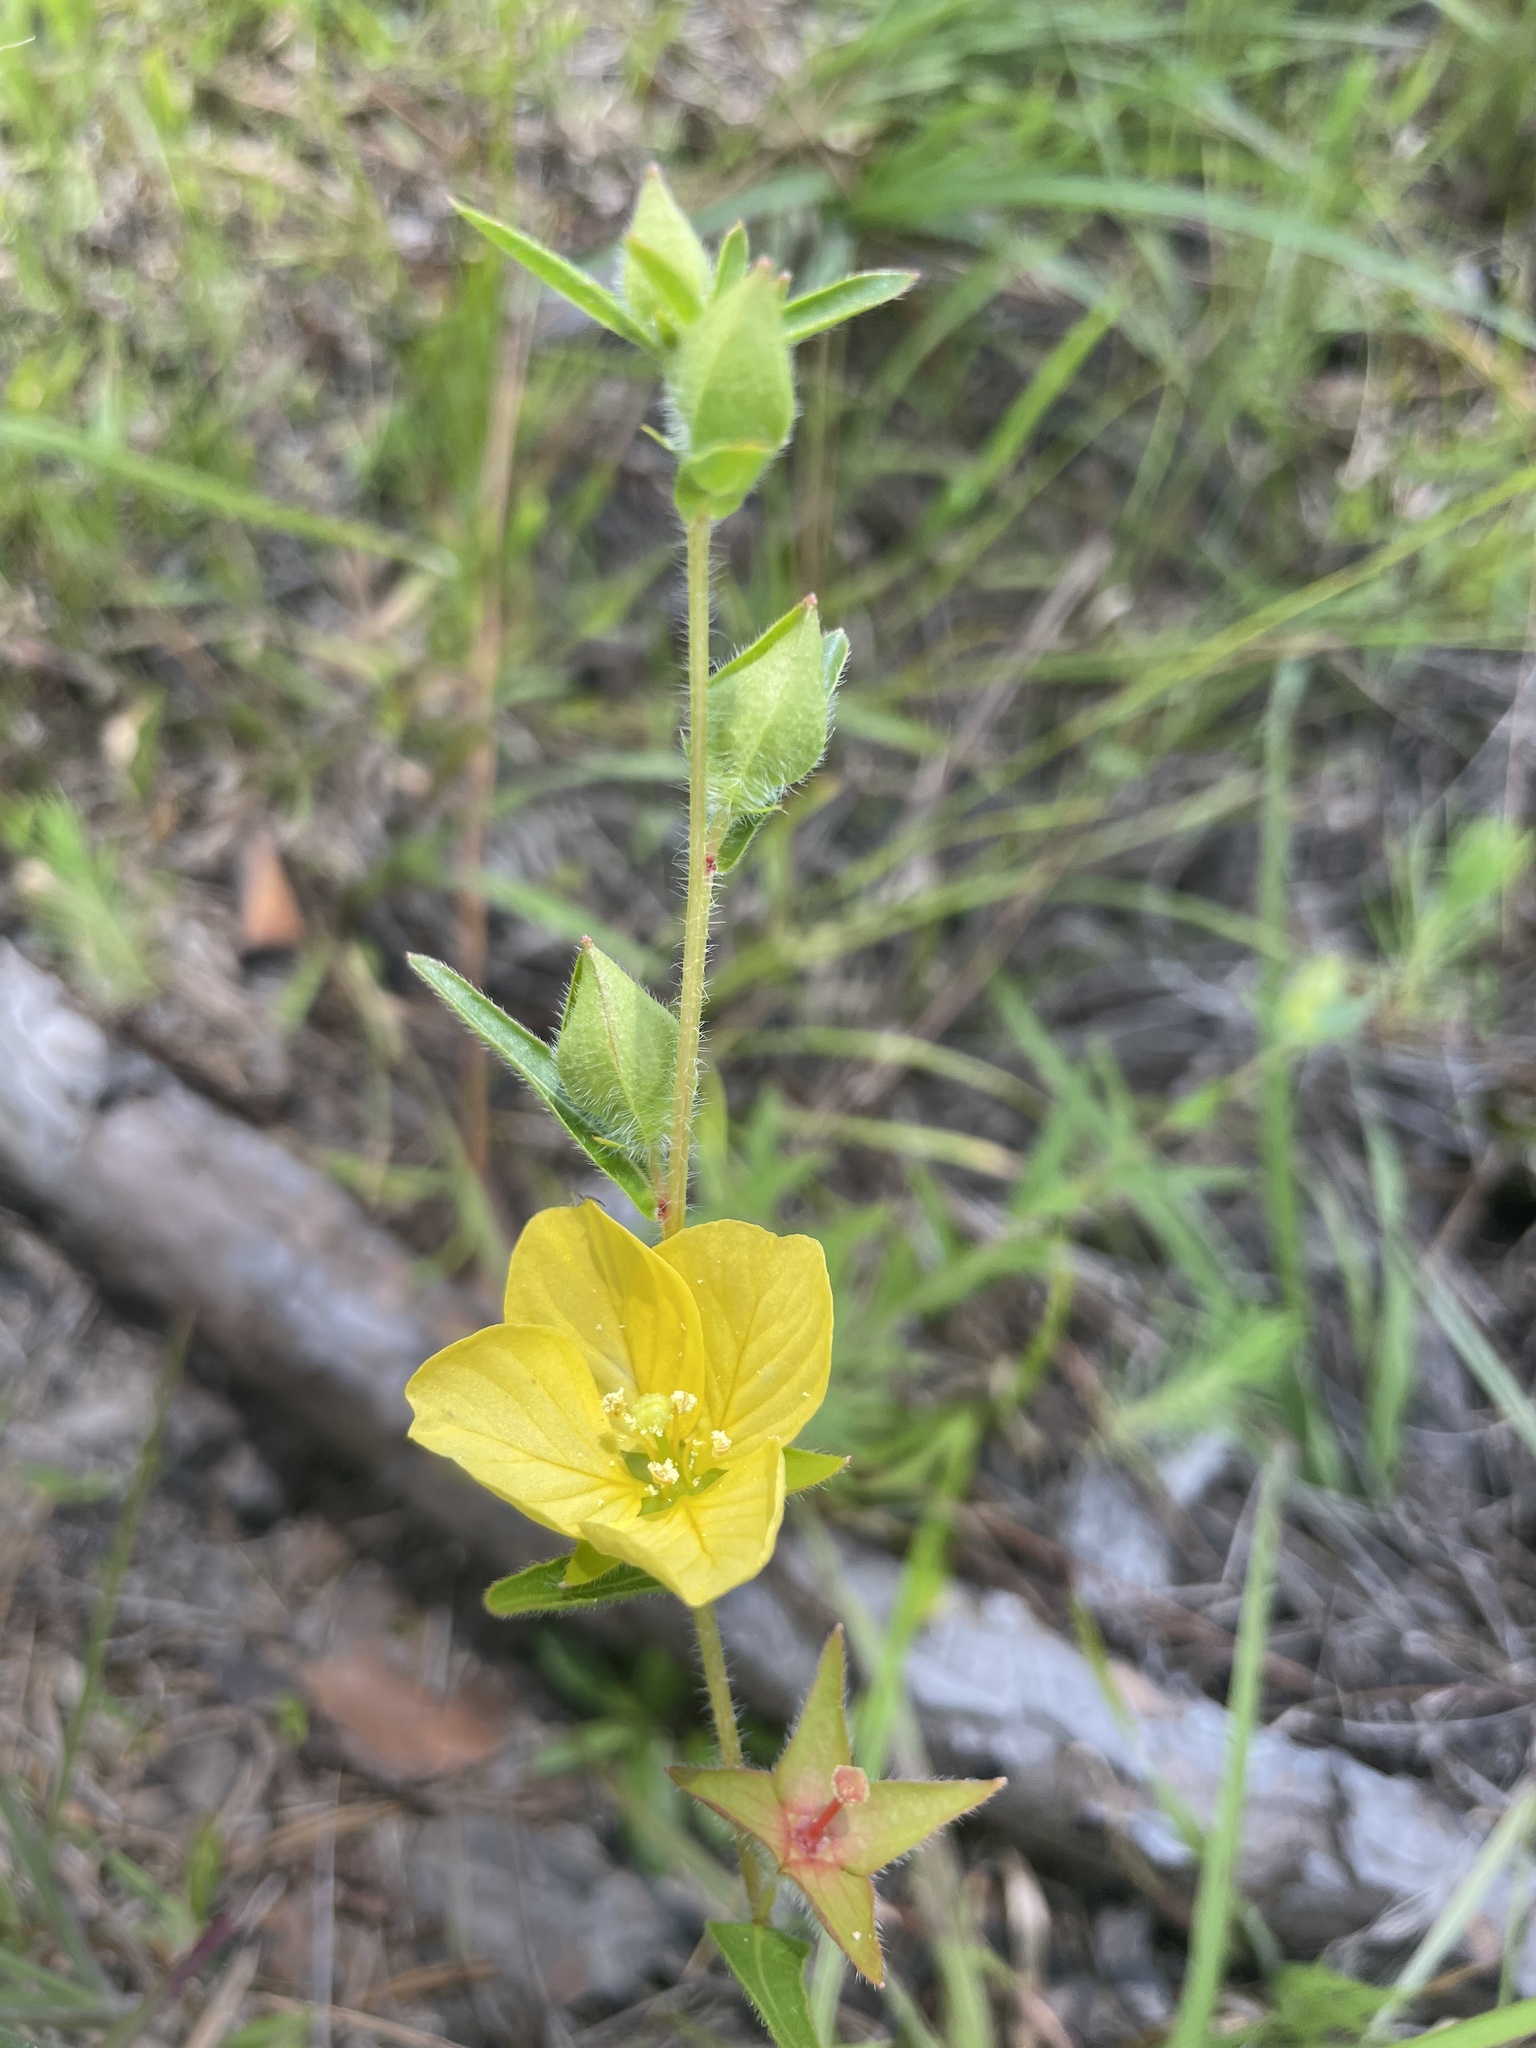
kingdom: Plantae
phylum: Tracheophyta
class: Magnoliopsida
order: Myrtales
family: Onagraceae
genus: Ludwigia
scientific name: Ludwigia hirtella
